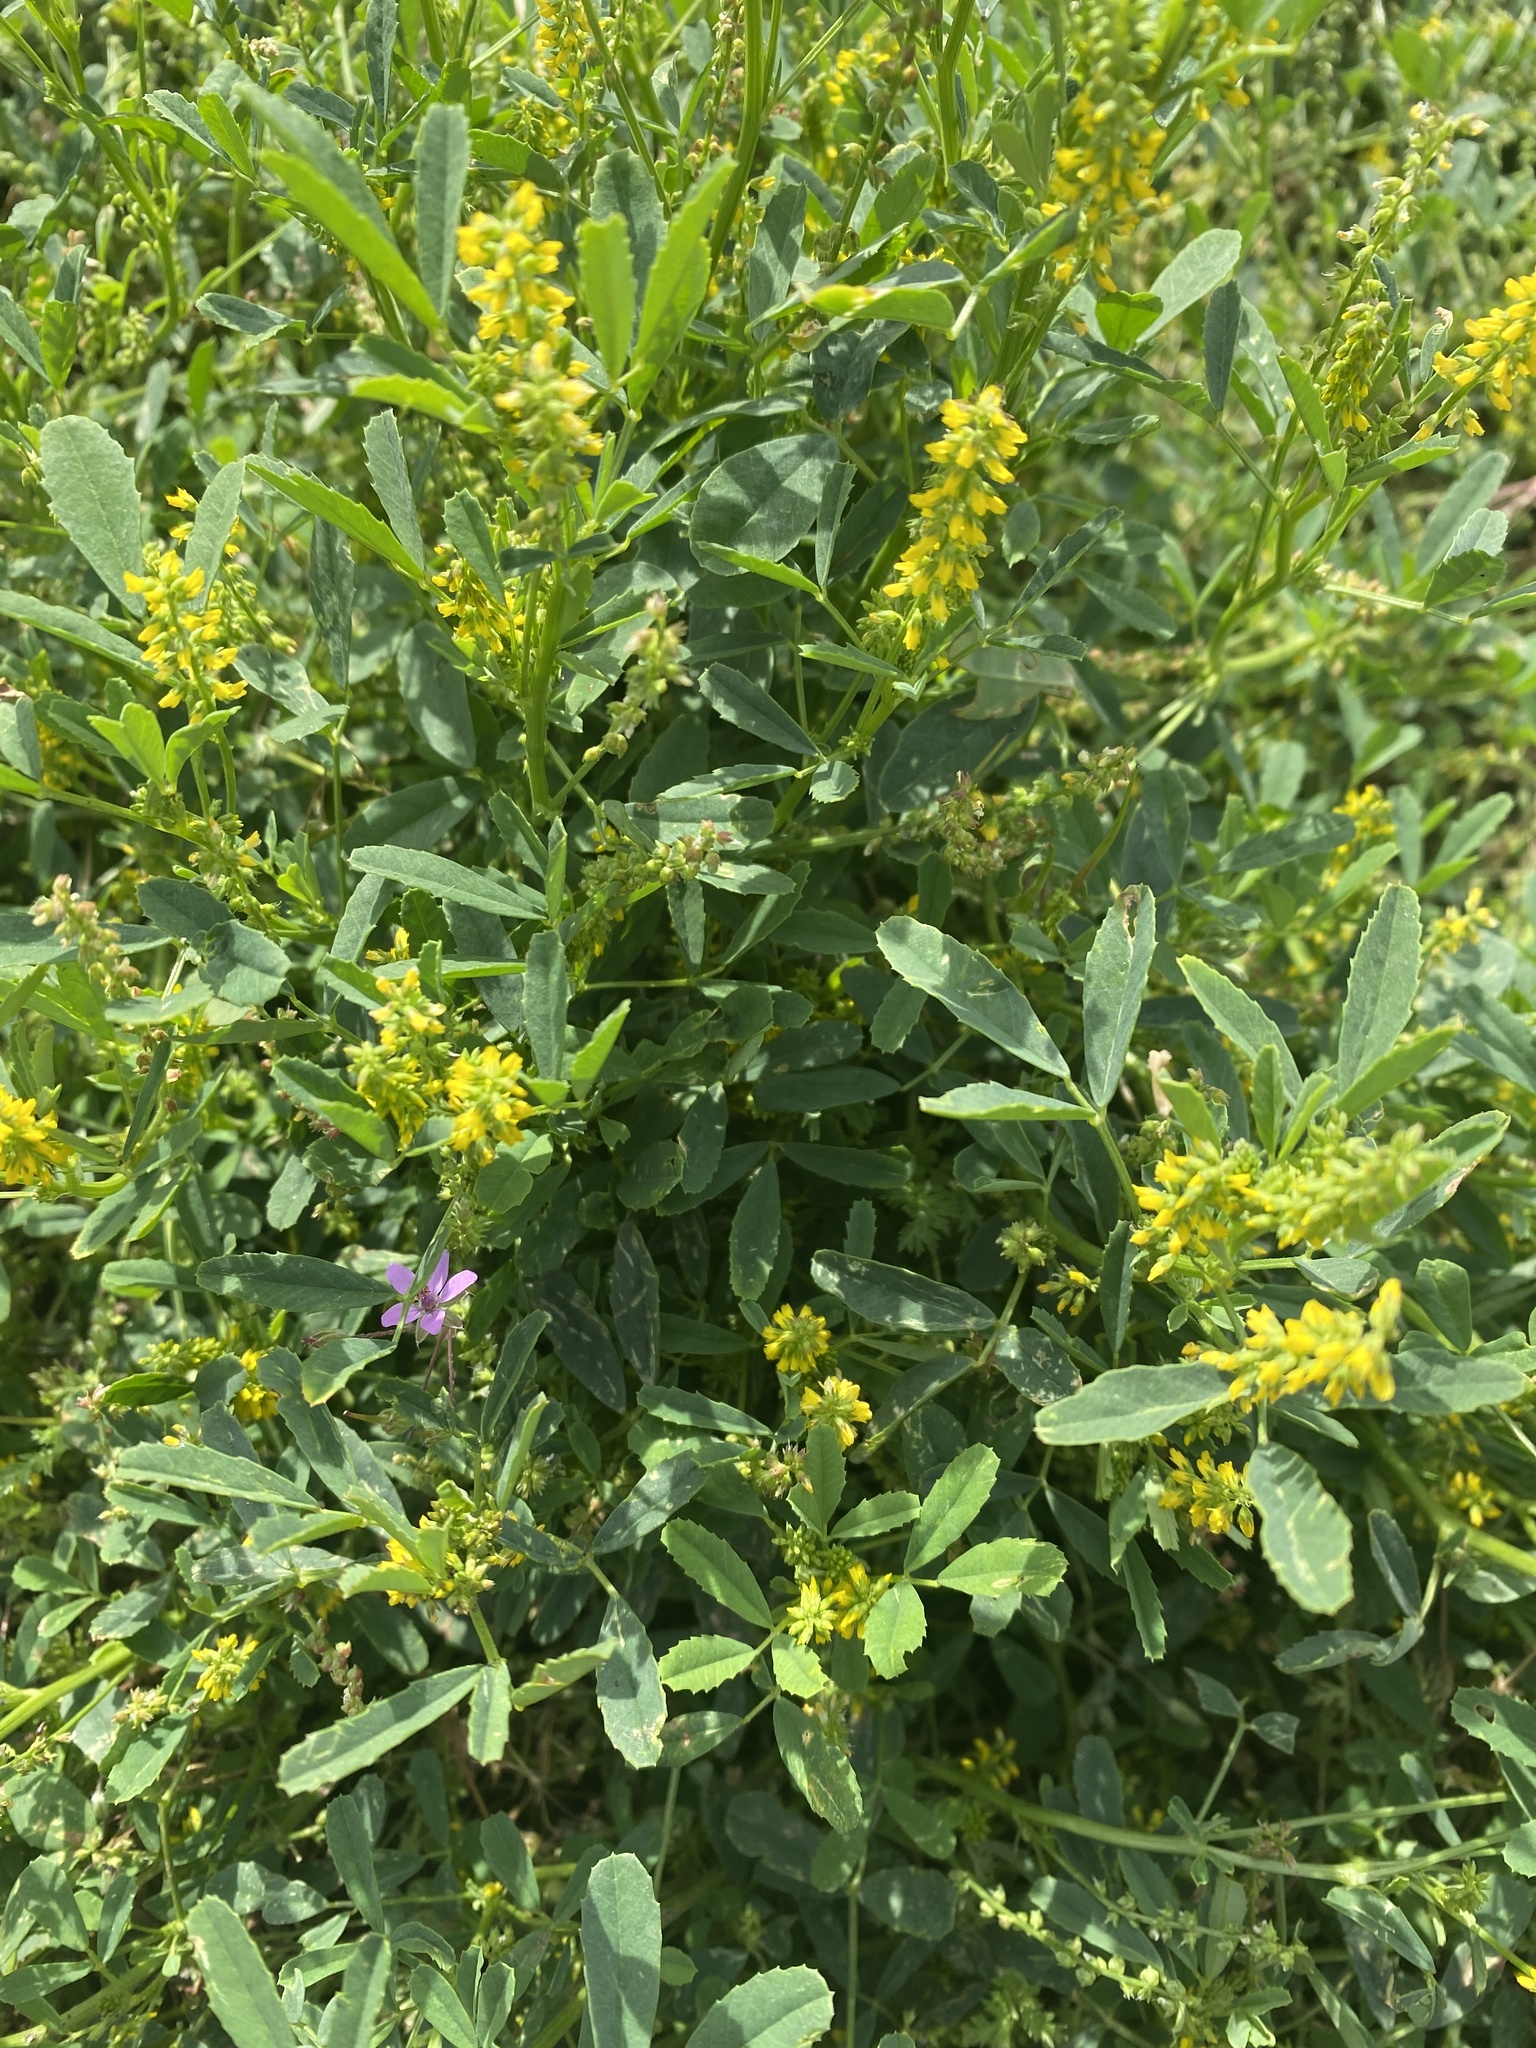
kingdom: Plantae
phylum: Tracheophyta
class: Magnoliopsida
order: Fabales
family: Fabaceae
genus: Melilotus
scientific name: Melilotus indicus
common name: Small melilot
